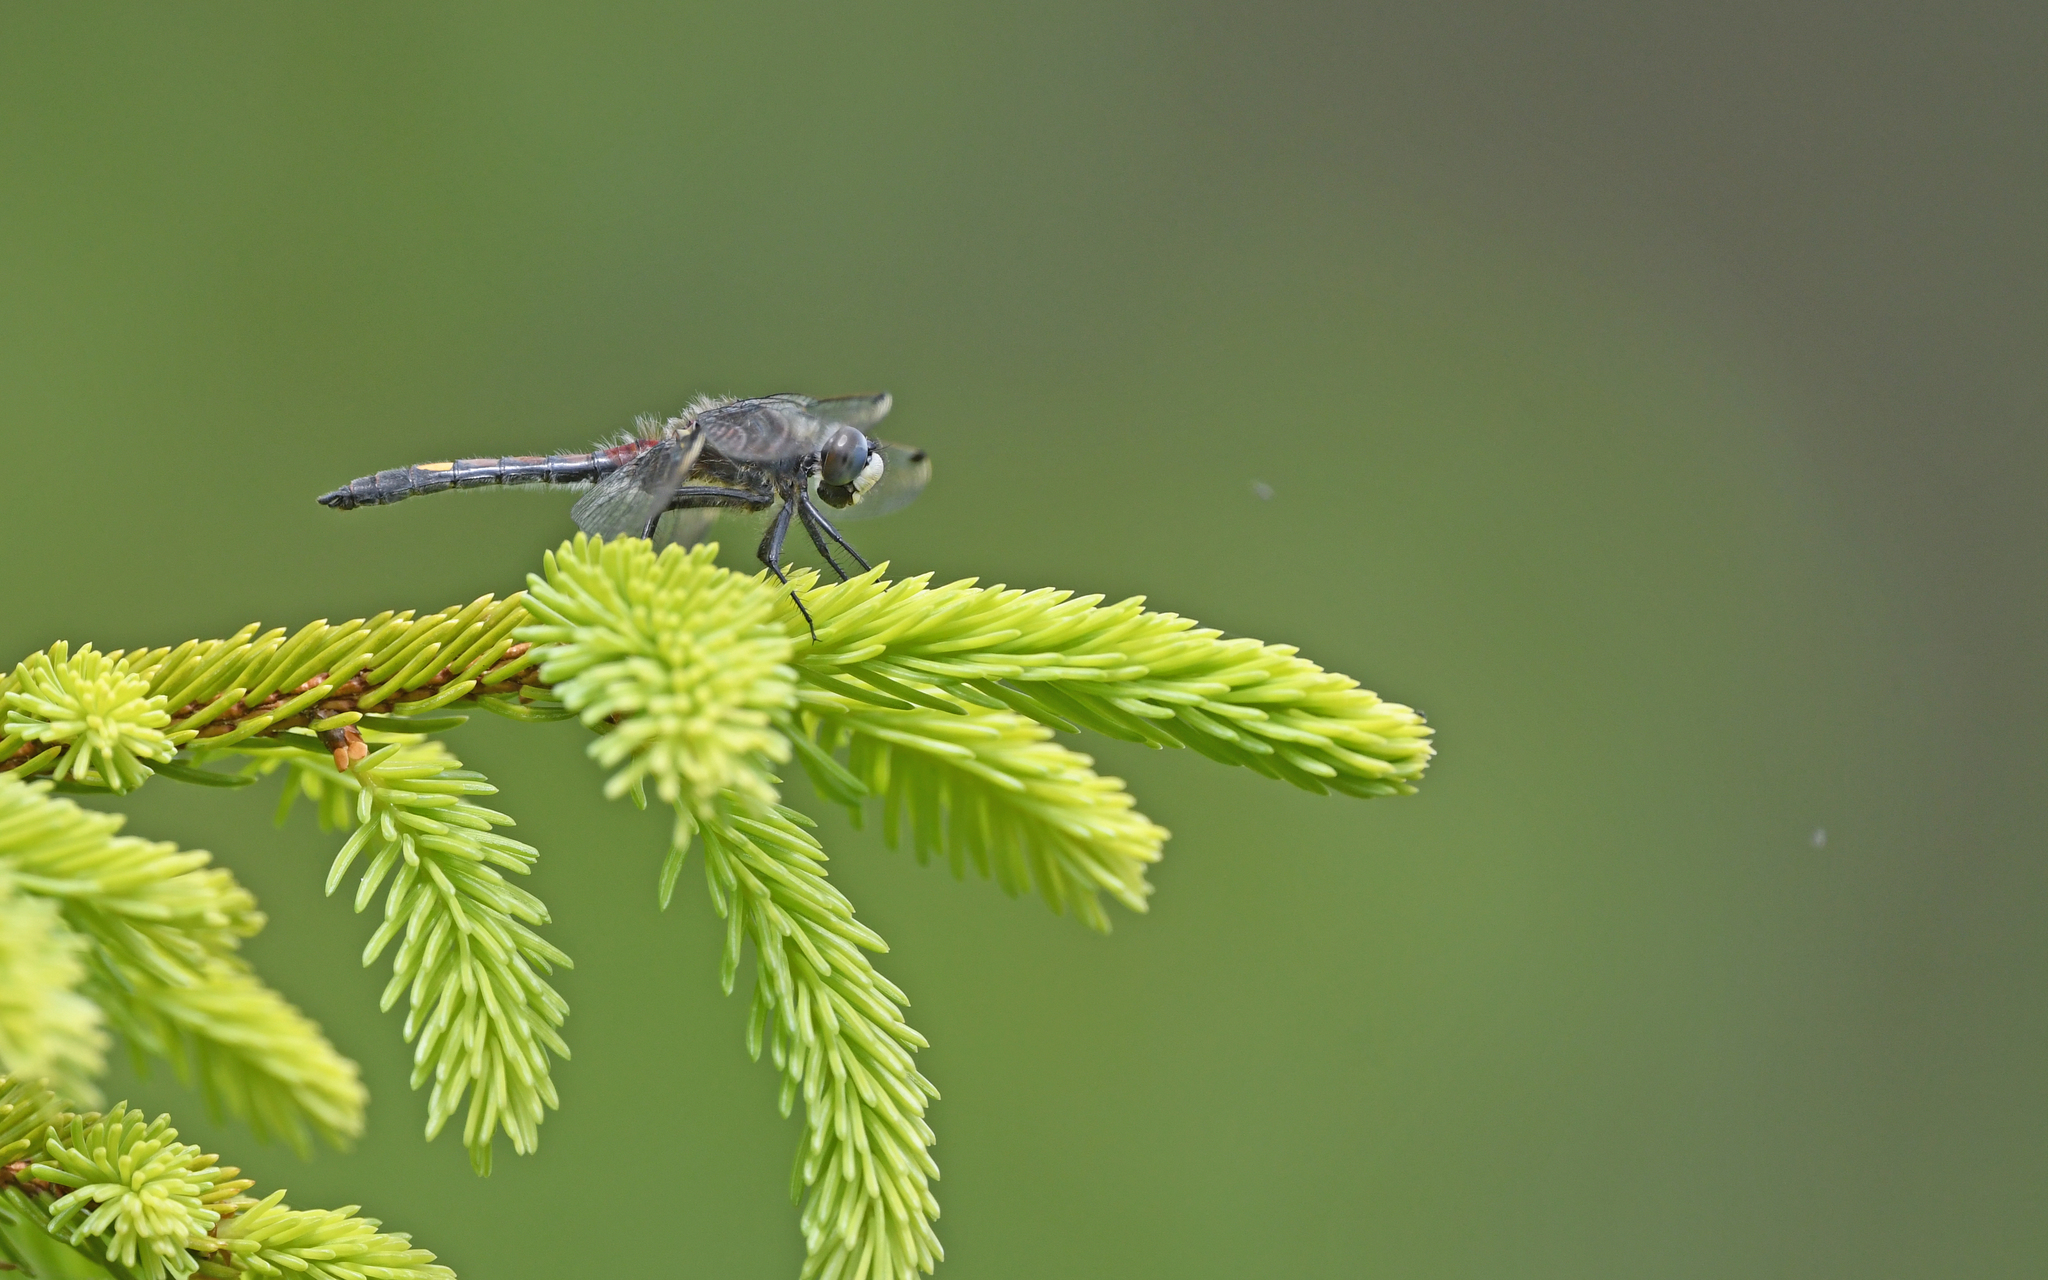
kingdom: Animalia
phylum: Arthropoda
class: Insecta
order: Odonata
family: Libellulidae
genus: Leucorrhinia
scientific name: Leucorrhinia pectoralis
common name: Yellow-spotted whiteface
